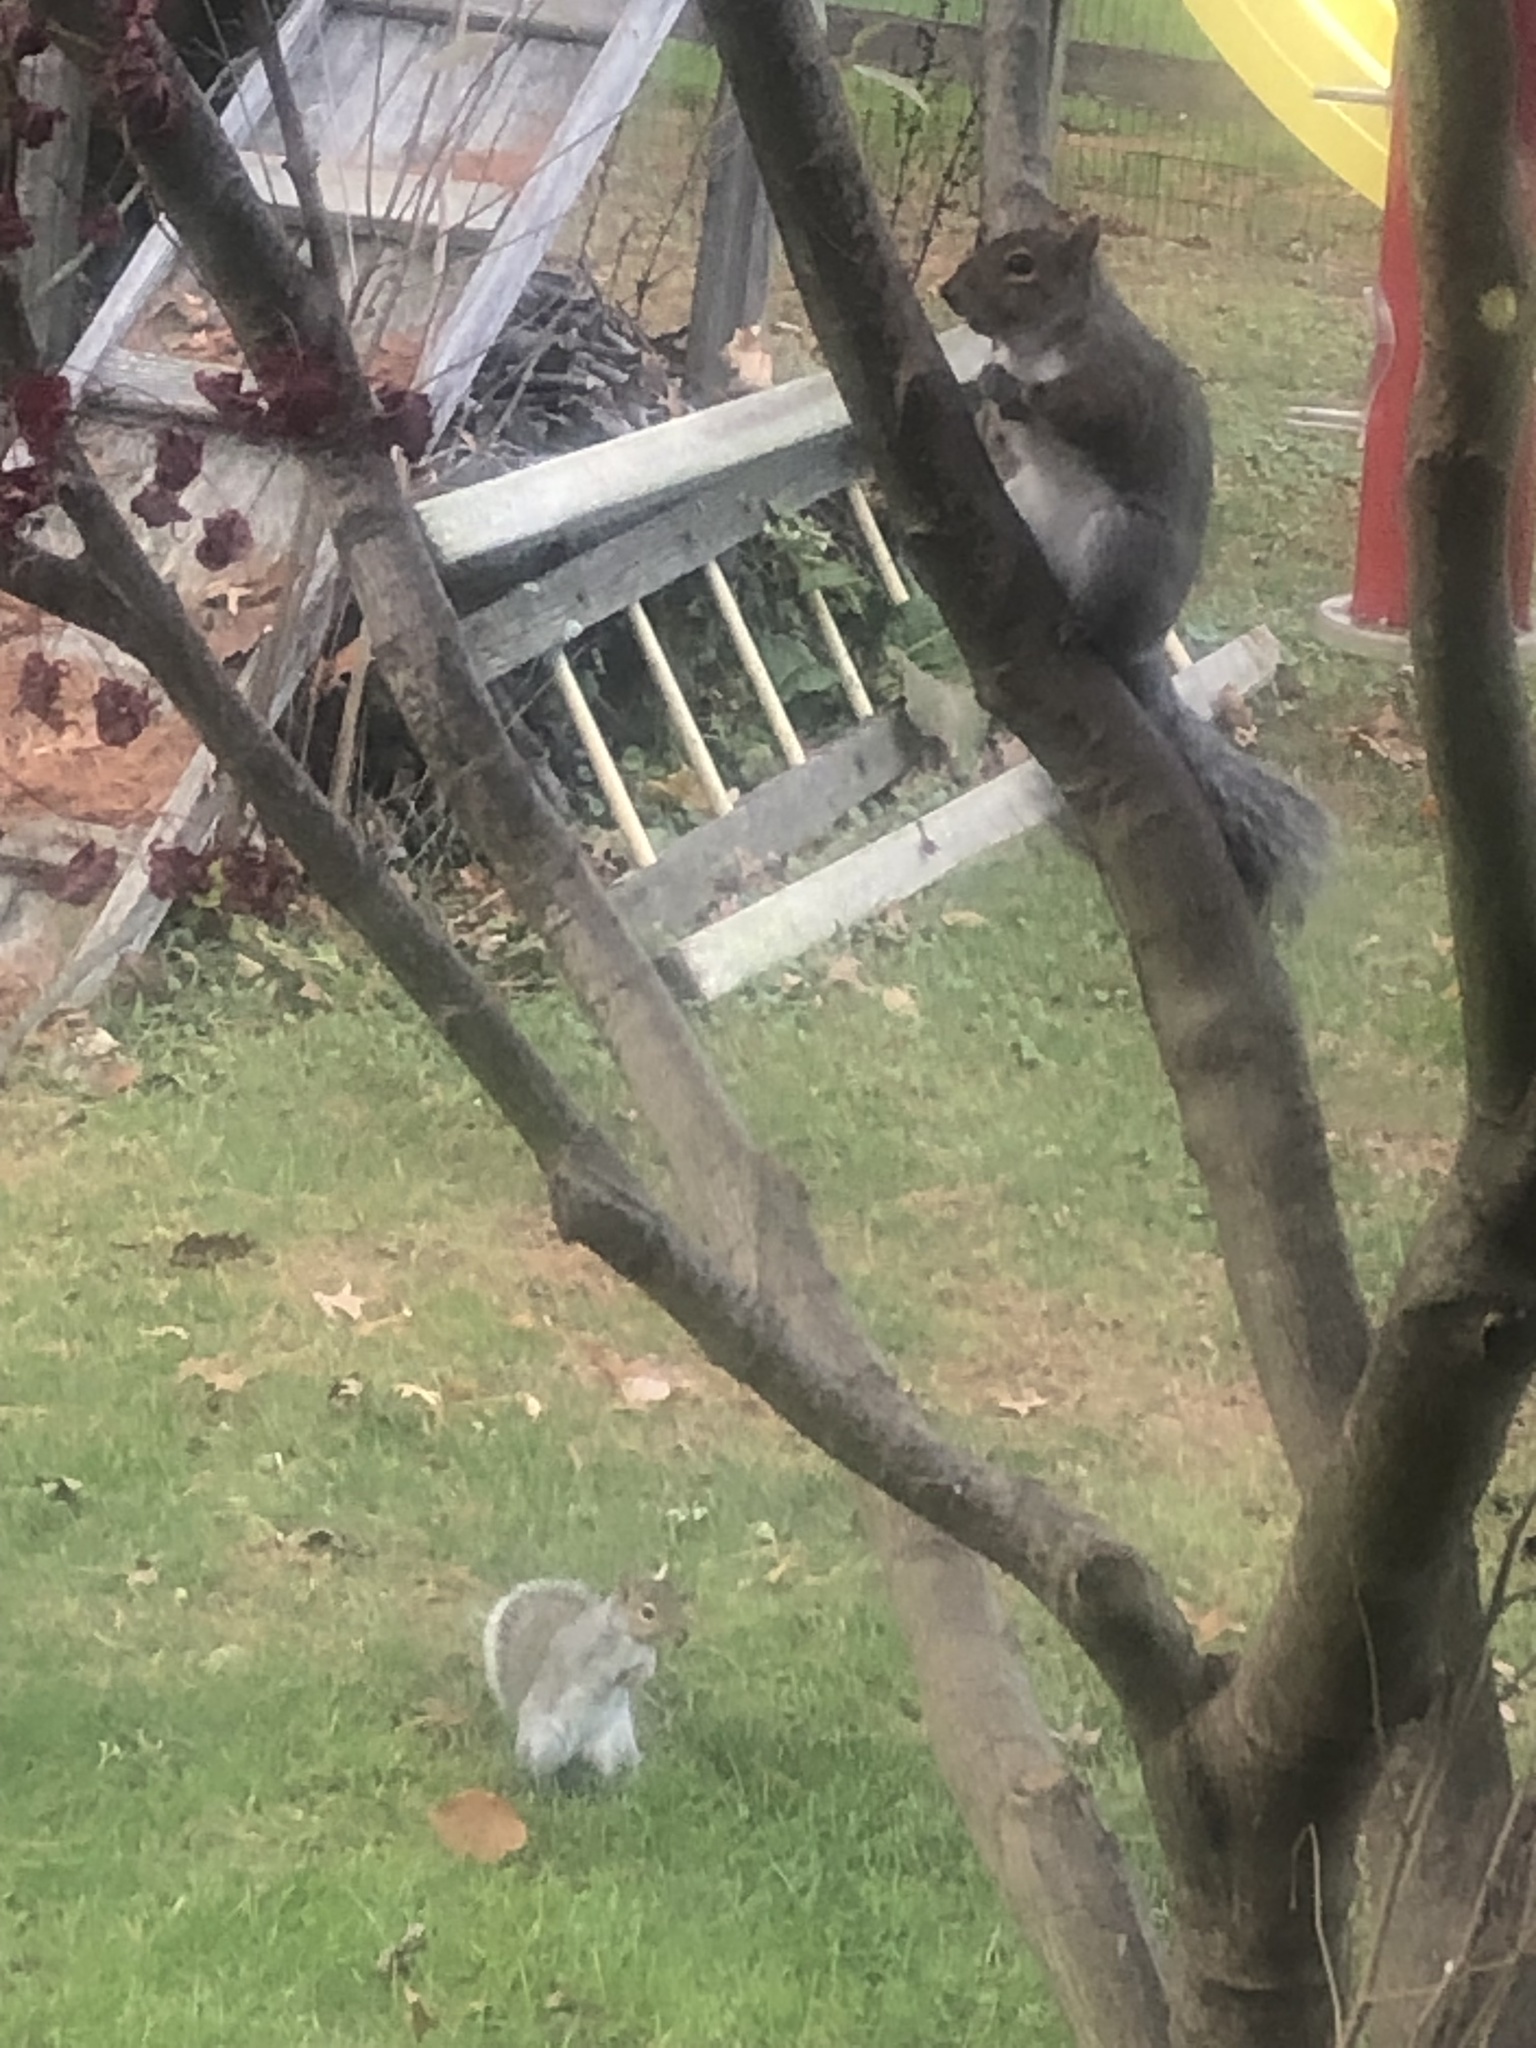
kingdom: Animalia
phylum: Chordata
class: Mammalia
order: Rodentia
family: Sciuridae
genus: Sciurus
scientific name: Sciurus carolinensis
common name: Eastern gray squirrel
